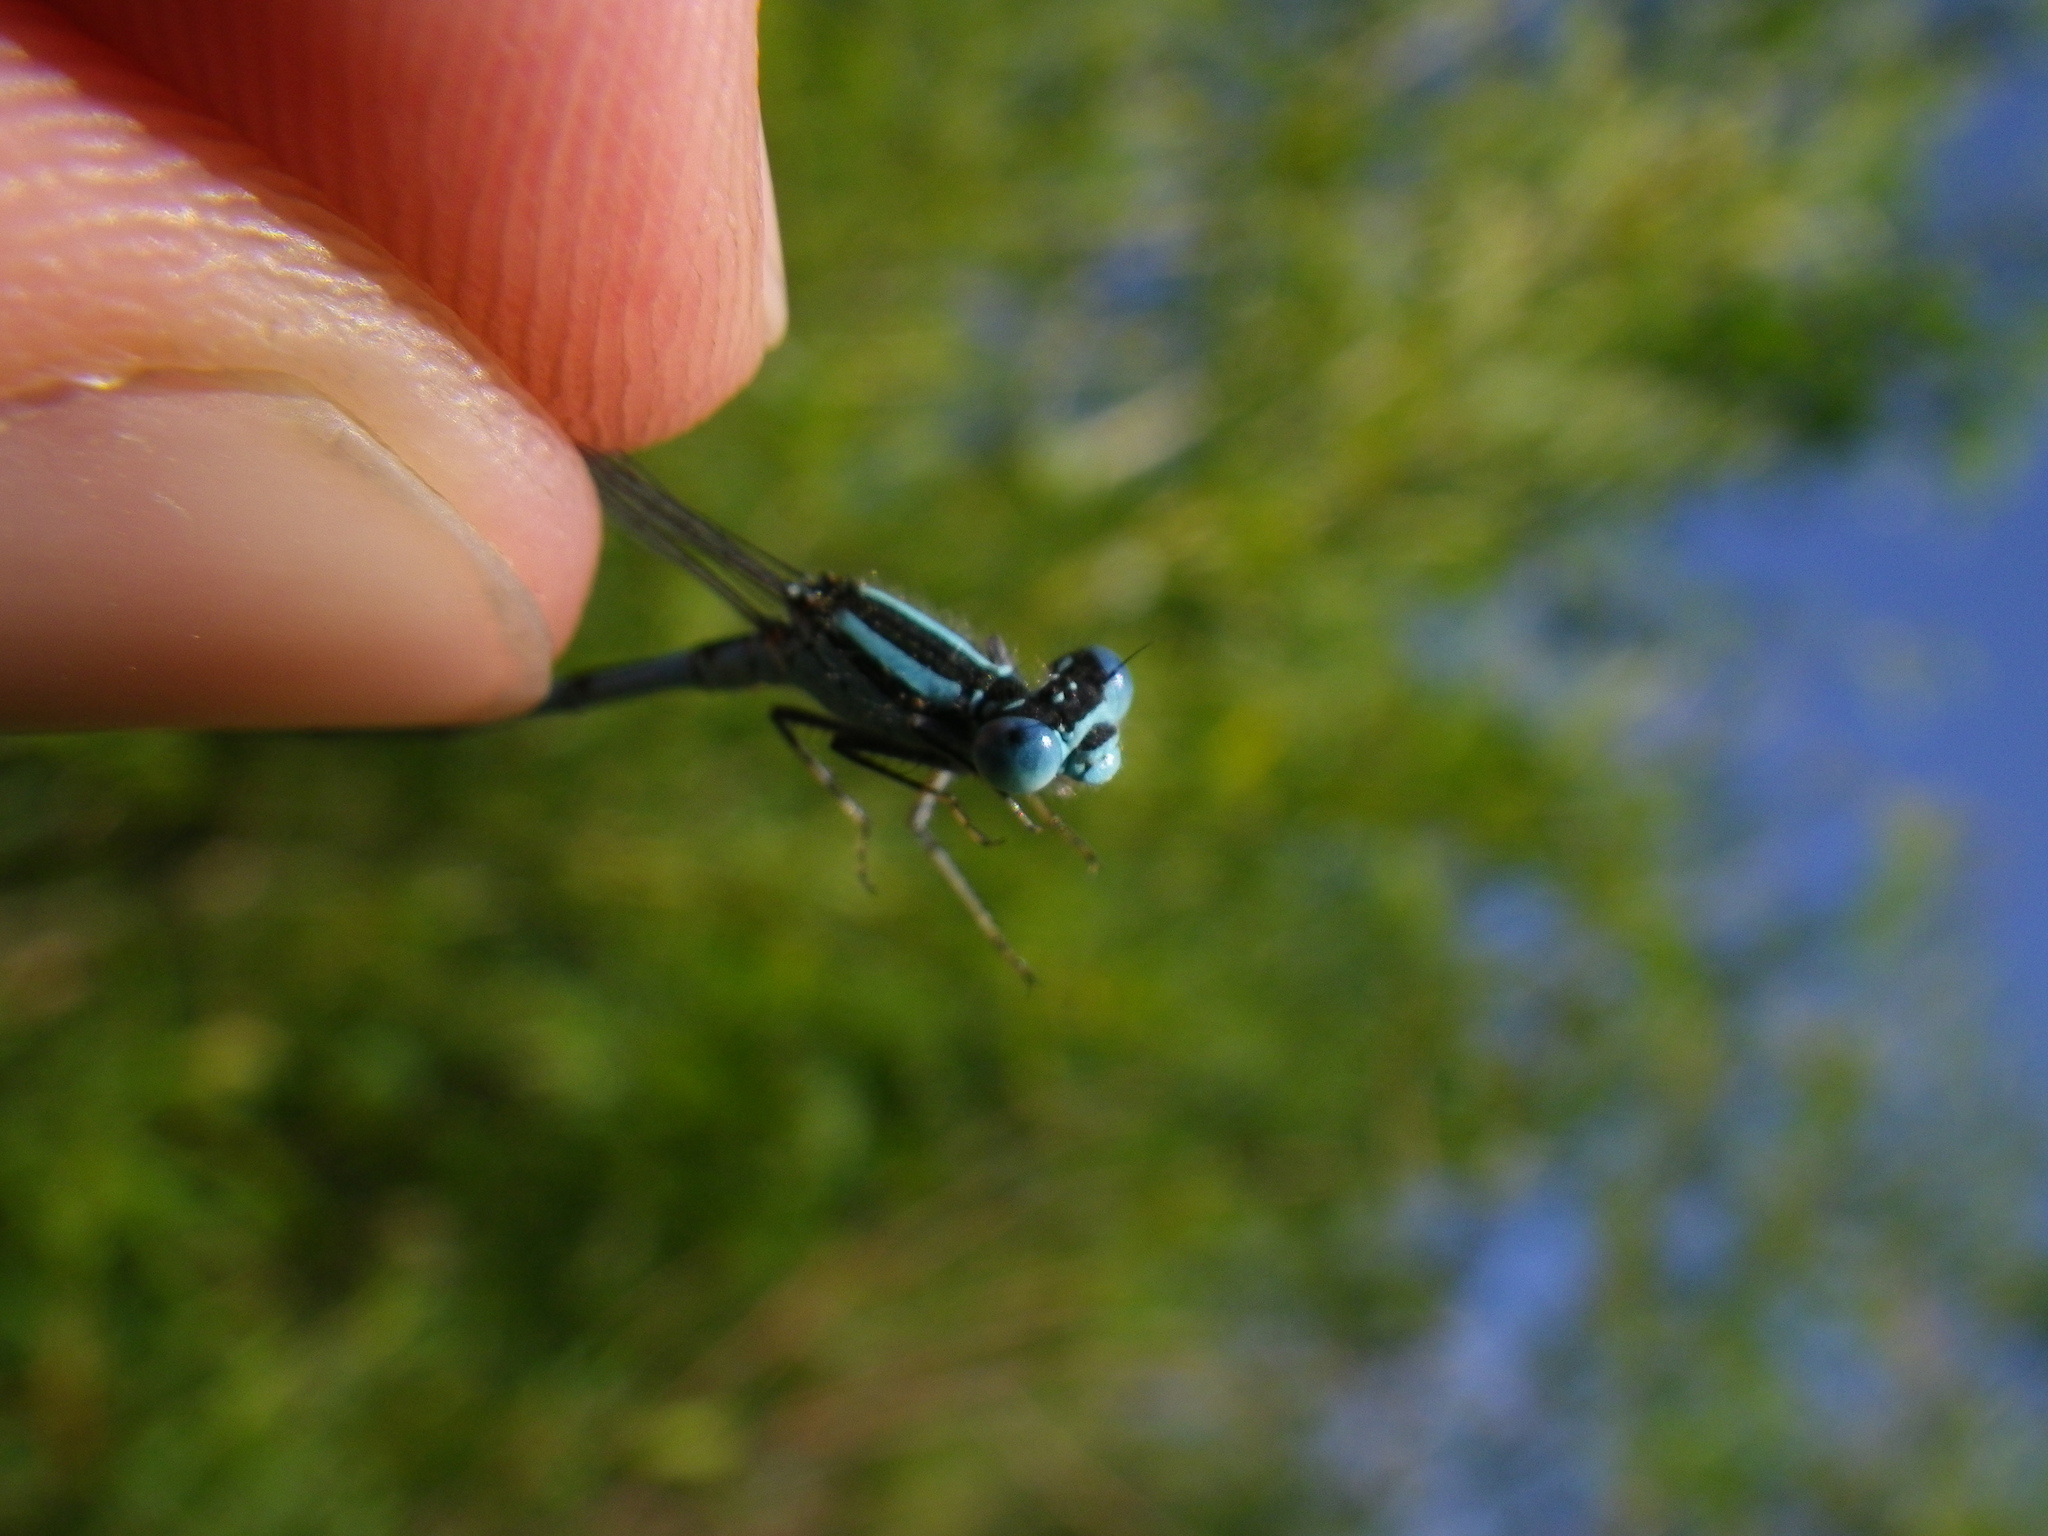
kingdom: Animalia
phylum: Arthropoda
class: Insecta
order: Odonata
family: Coenagrionidae
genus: Erythromma
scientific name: Erythromma lindenii
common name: Blue-eye
